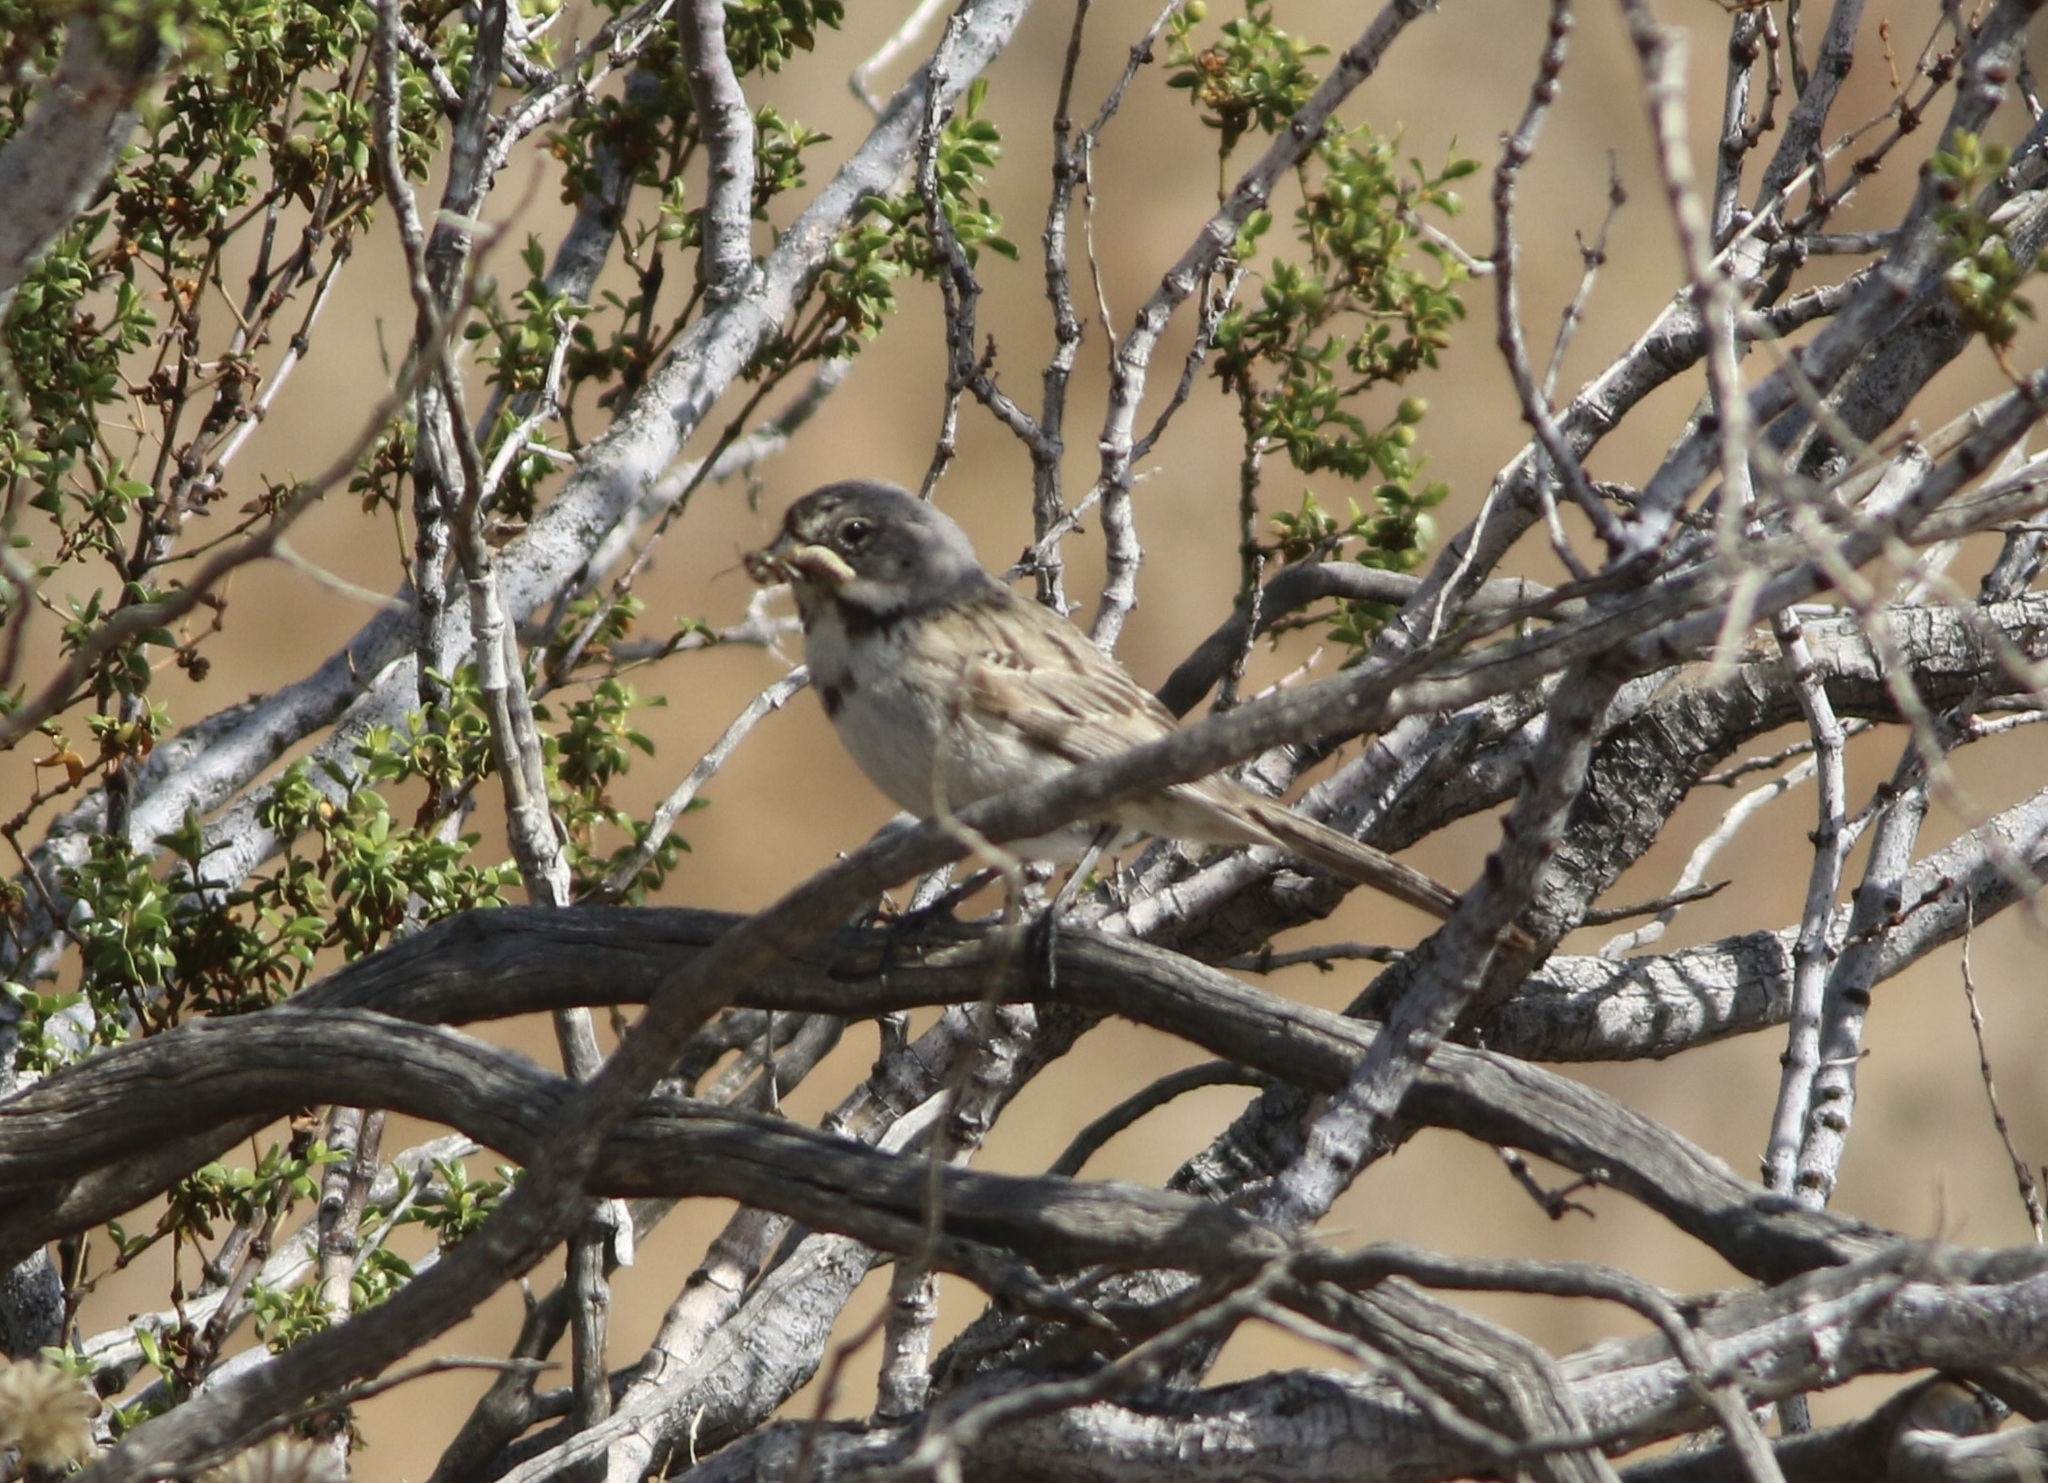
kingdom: Animalia
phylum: Chordata
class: Aves
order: Passeriformes
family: Passerellidae
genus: Artemisiospiza
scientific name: Artemisiospiza belli
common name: Bell's sparrow
